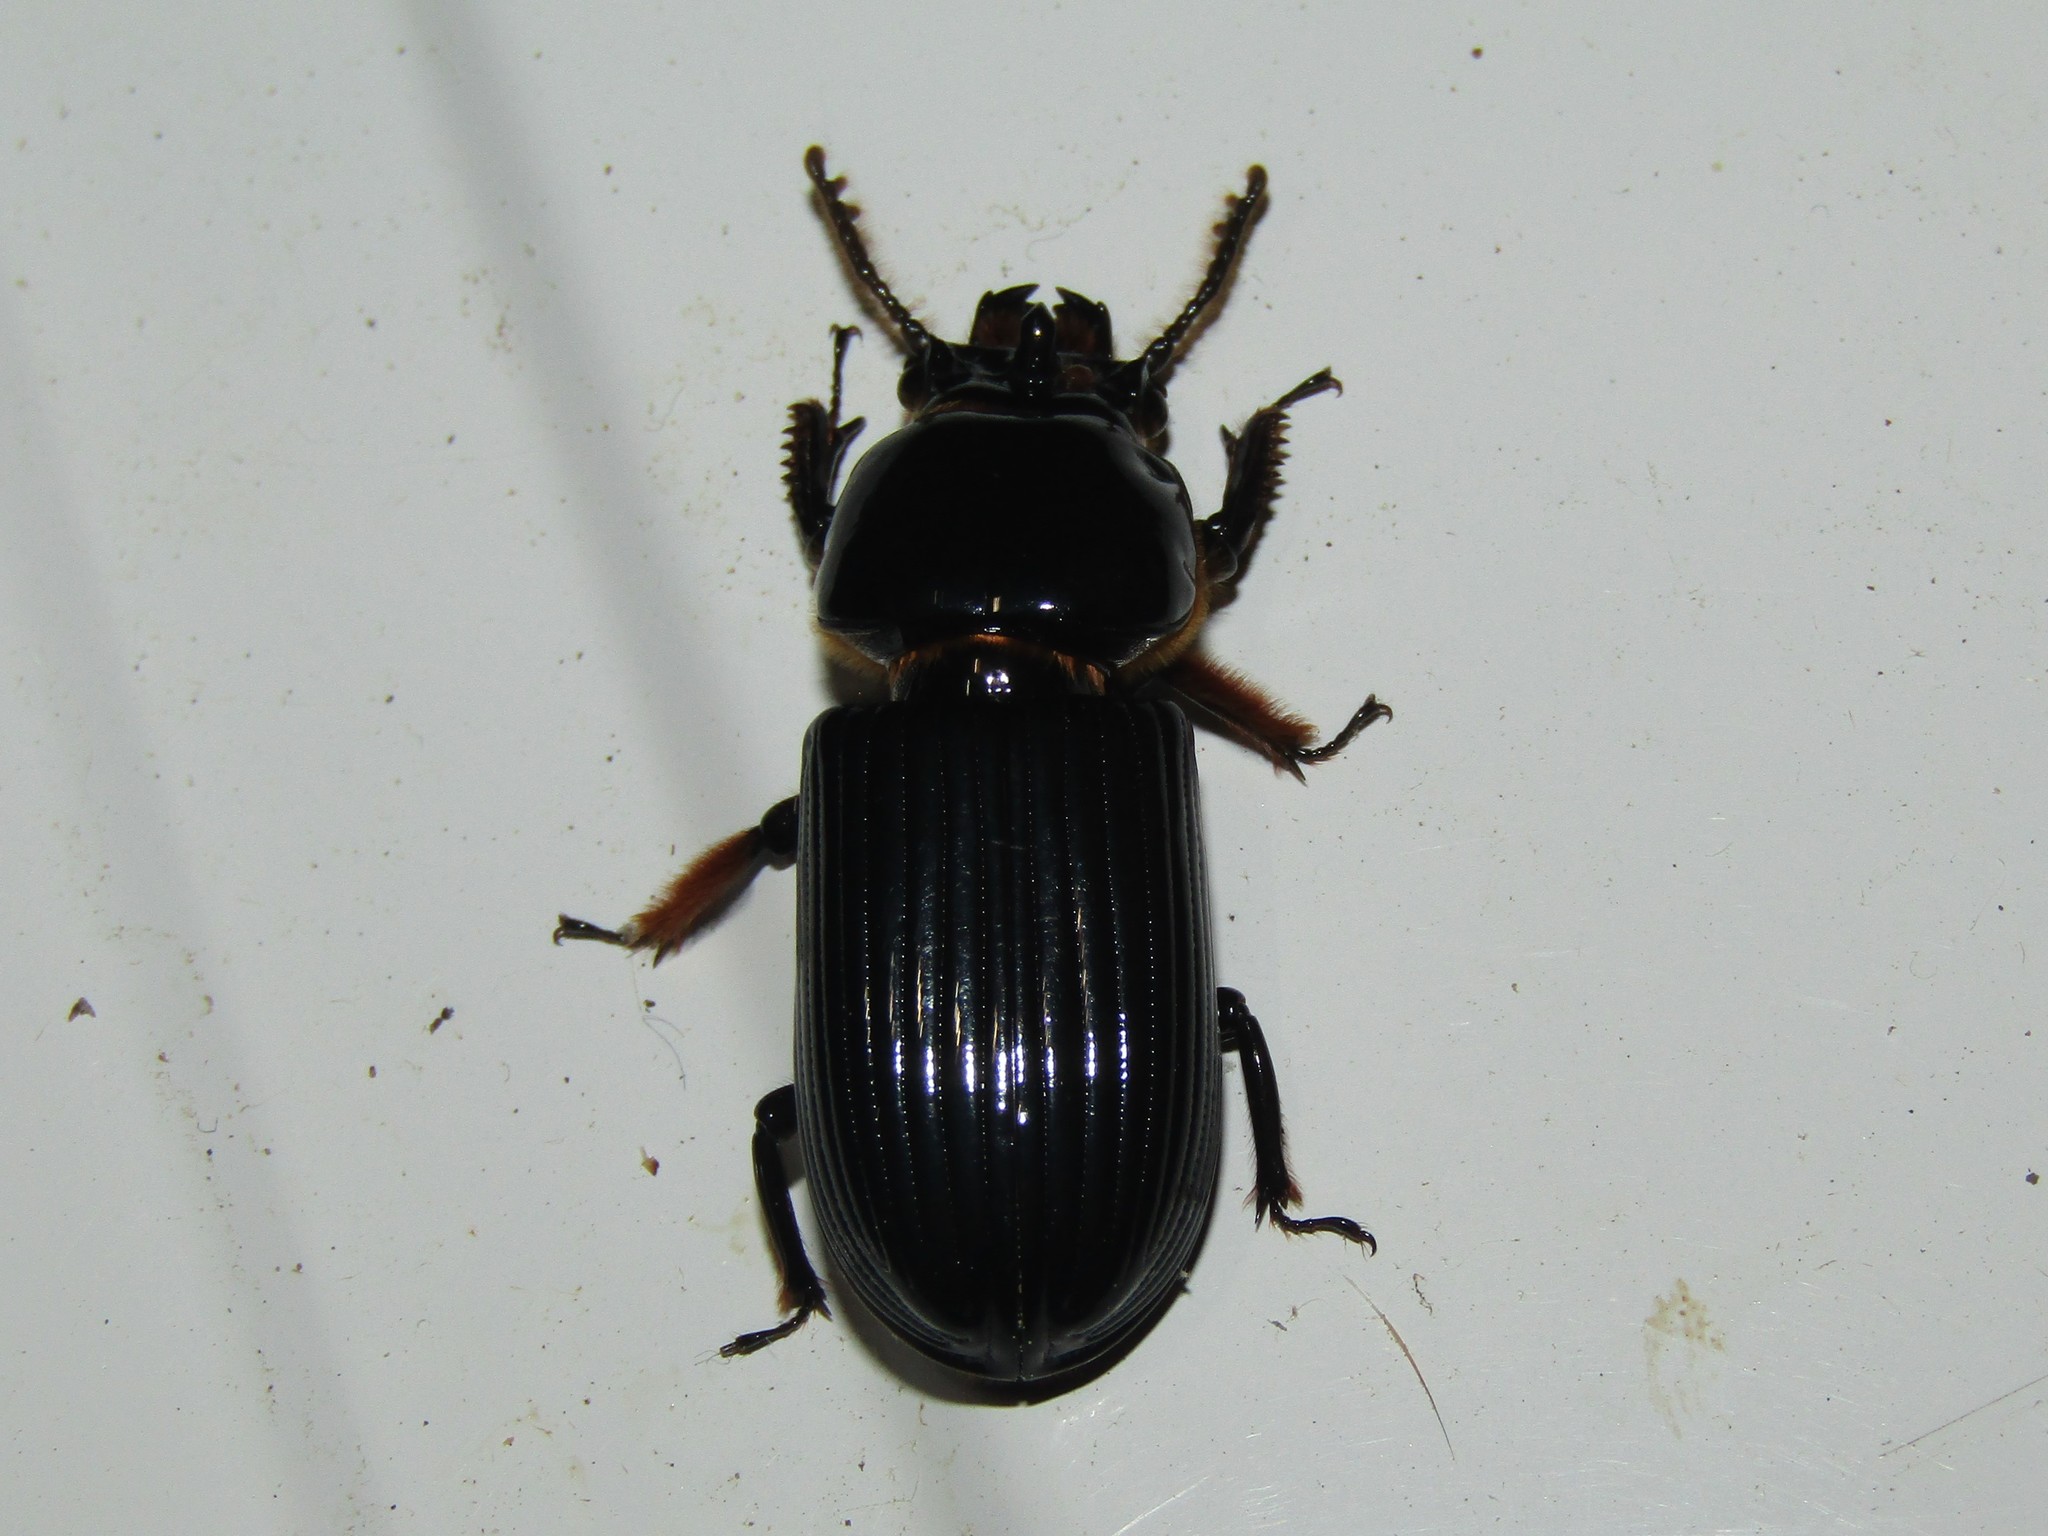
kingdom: Animalia
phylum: Arthropoda
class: Insecta
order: Coleoptera
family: Passalidae
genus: Odontotaenius
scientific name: Odontotaenius disjunctus
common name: Patent leather beetle
